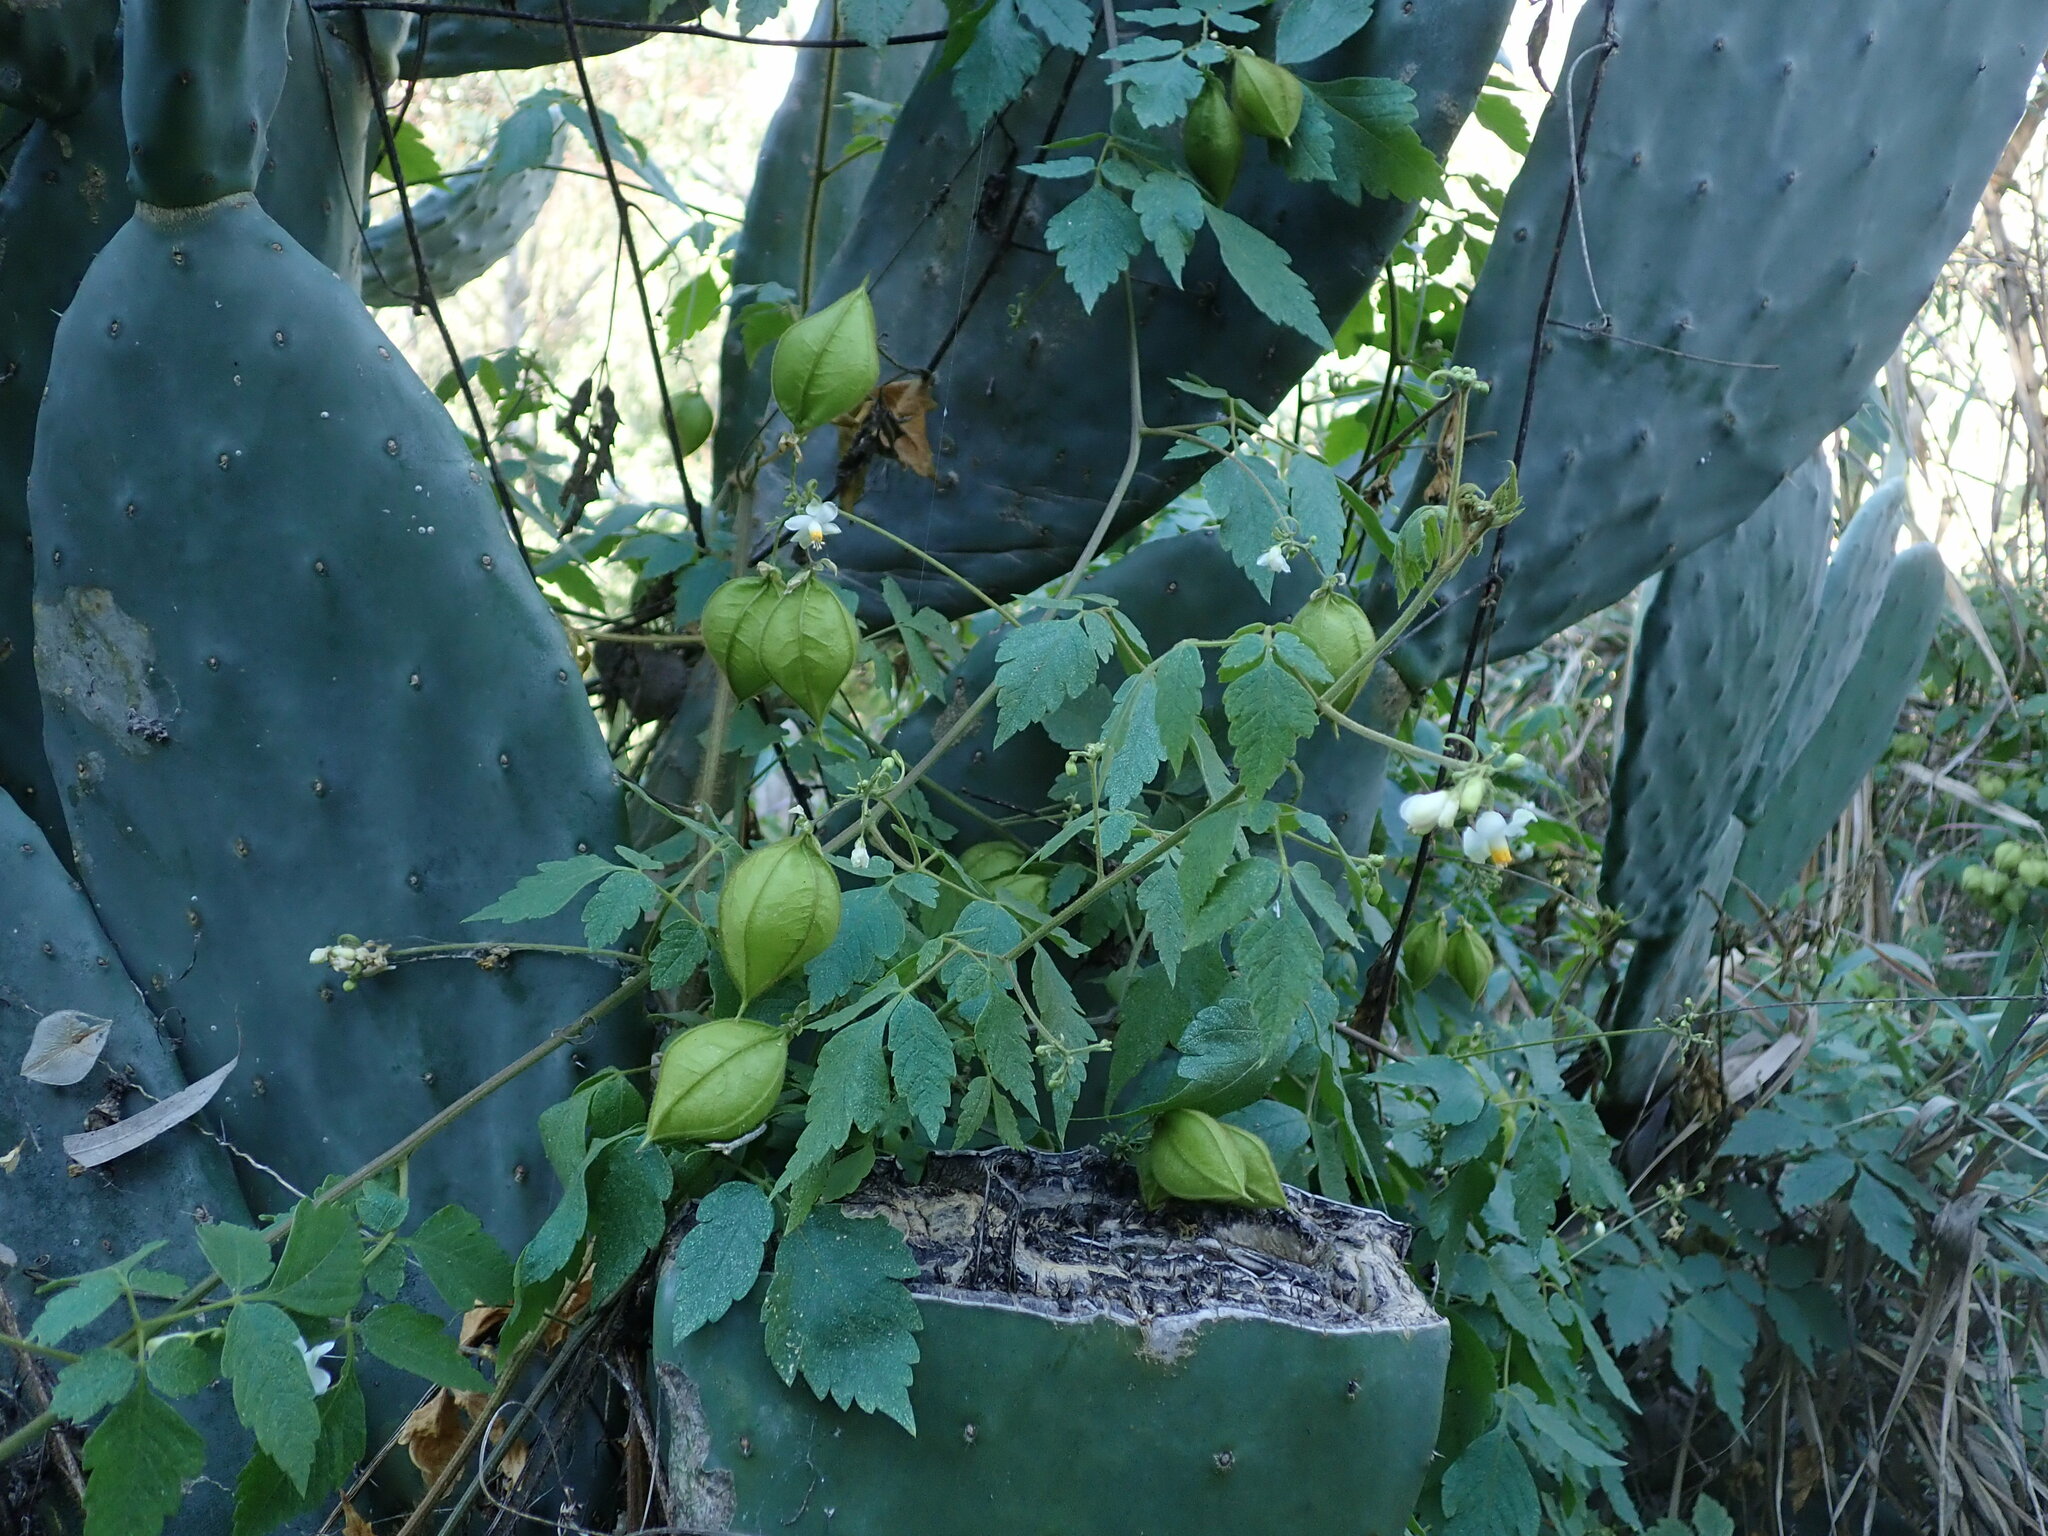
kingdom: Plantae
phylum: Tracheophyta
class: Magnoliopsida
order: Sapindales
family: Sapindaceae
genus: Cardiospermum
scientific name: Cardiospermum grandiflorum
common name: Balloon vine
